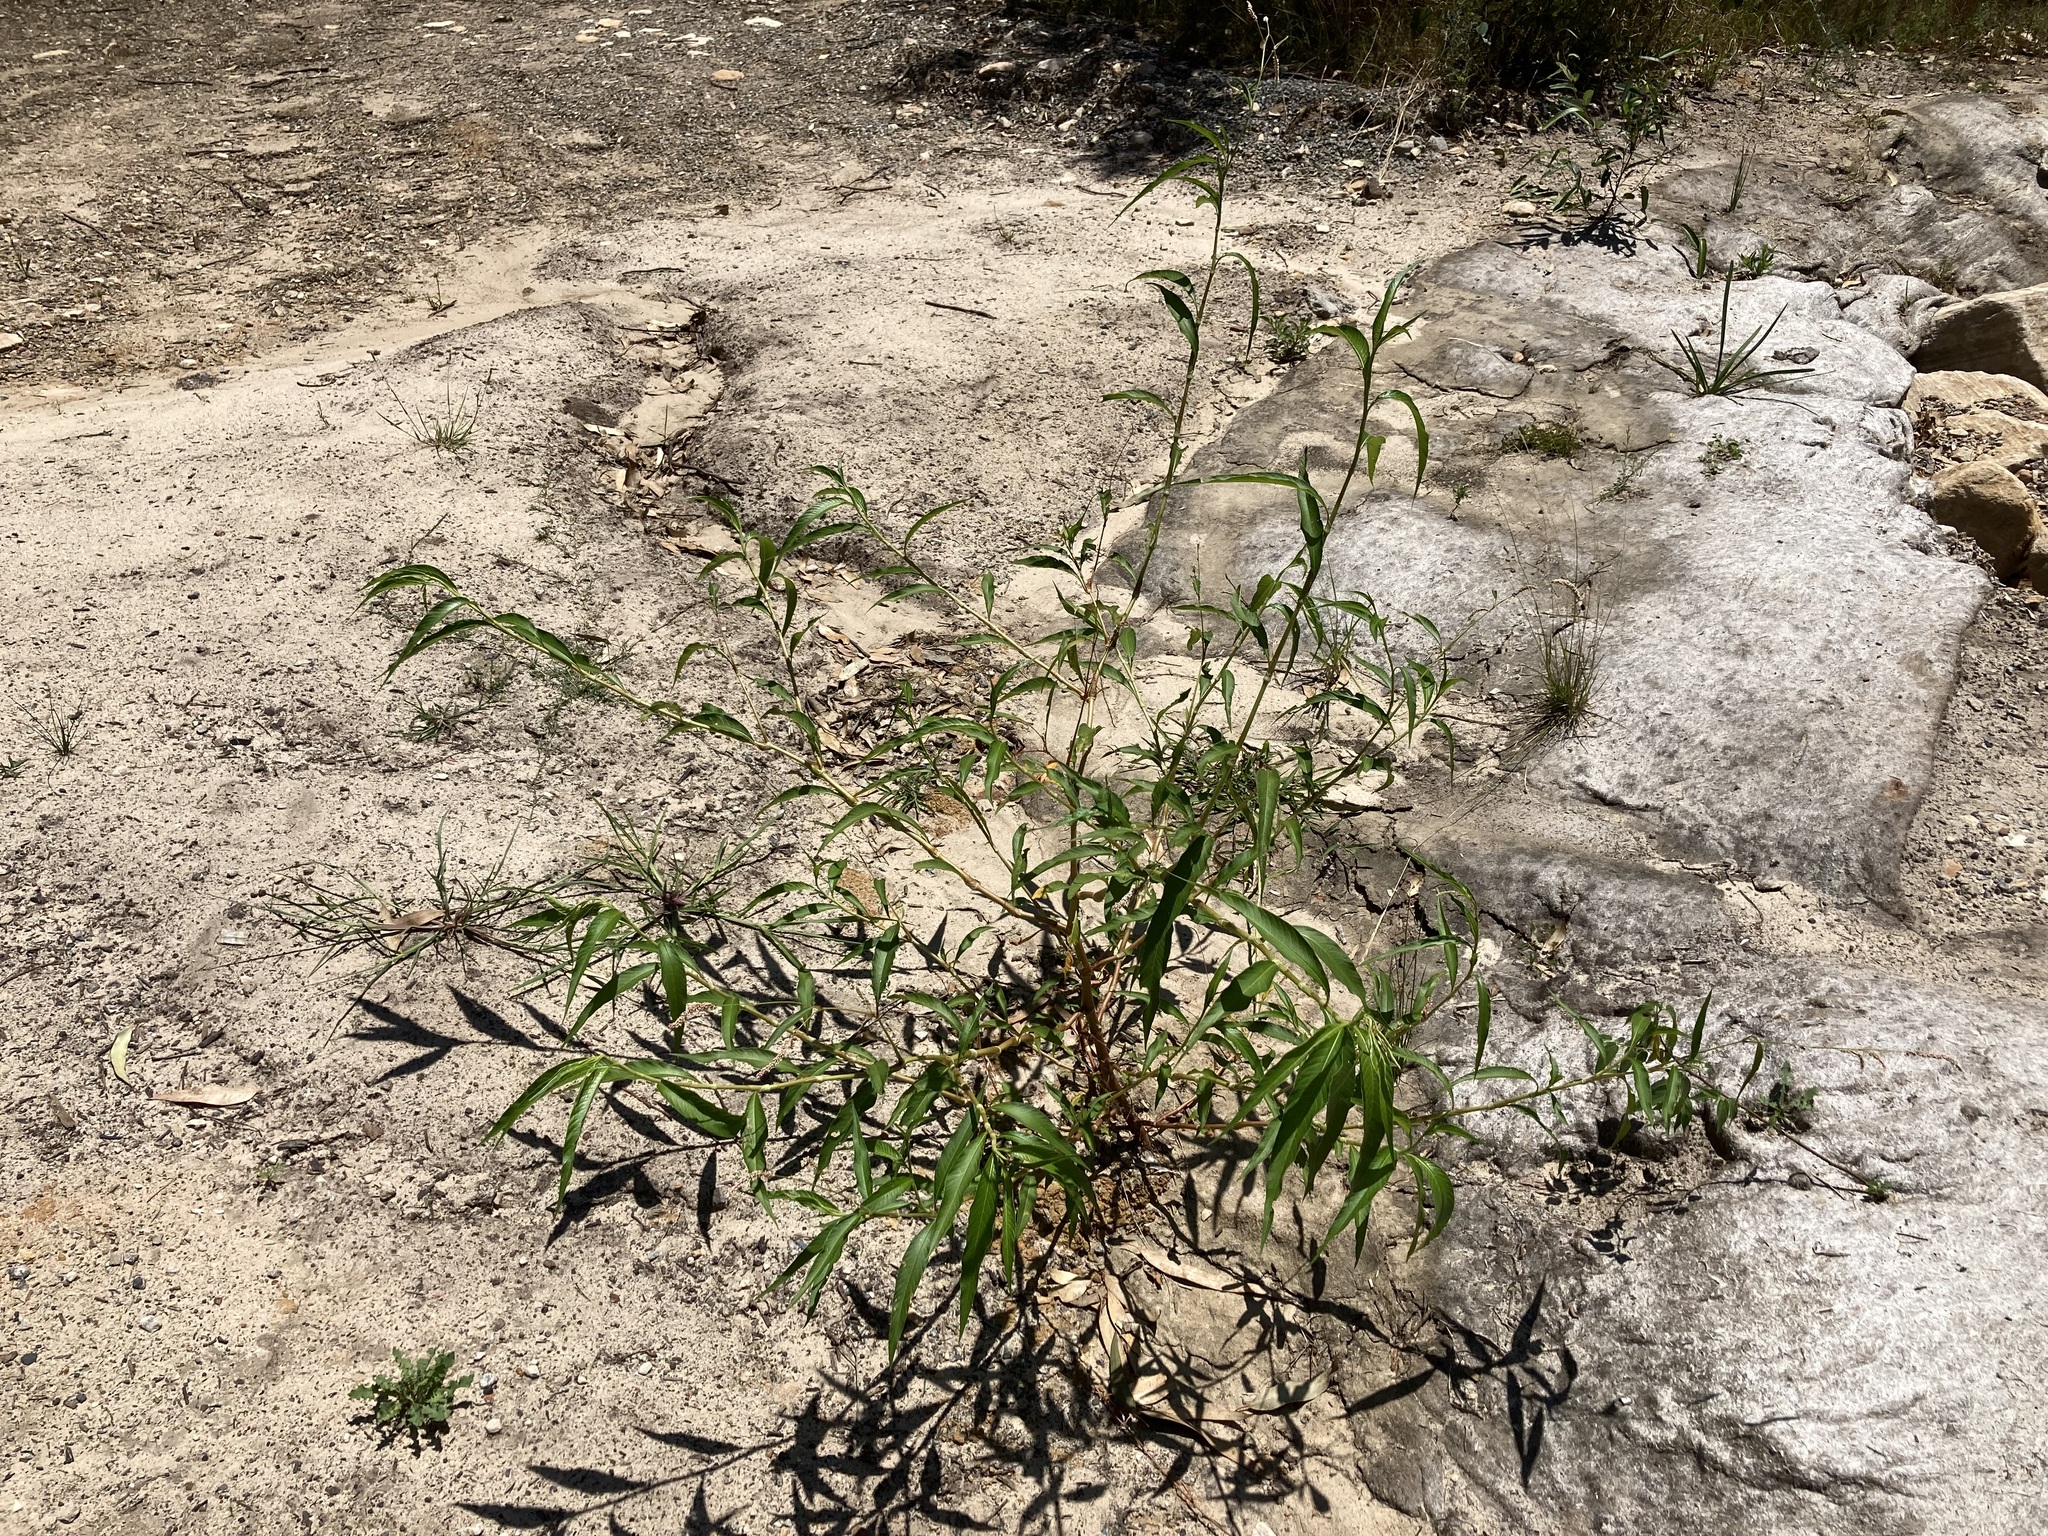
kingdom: Plantae
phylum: Tracheophyta
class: Magnoliopsida
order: Caryophyllales
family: Polygonaceae
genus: Persicaria
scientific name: Persicaria lapathifolia
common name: Curlytop knotweed
